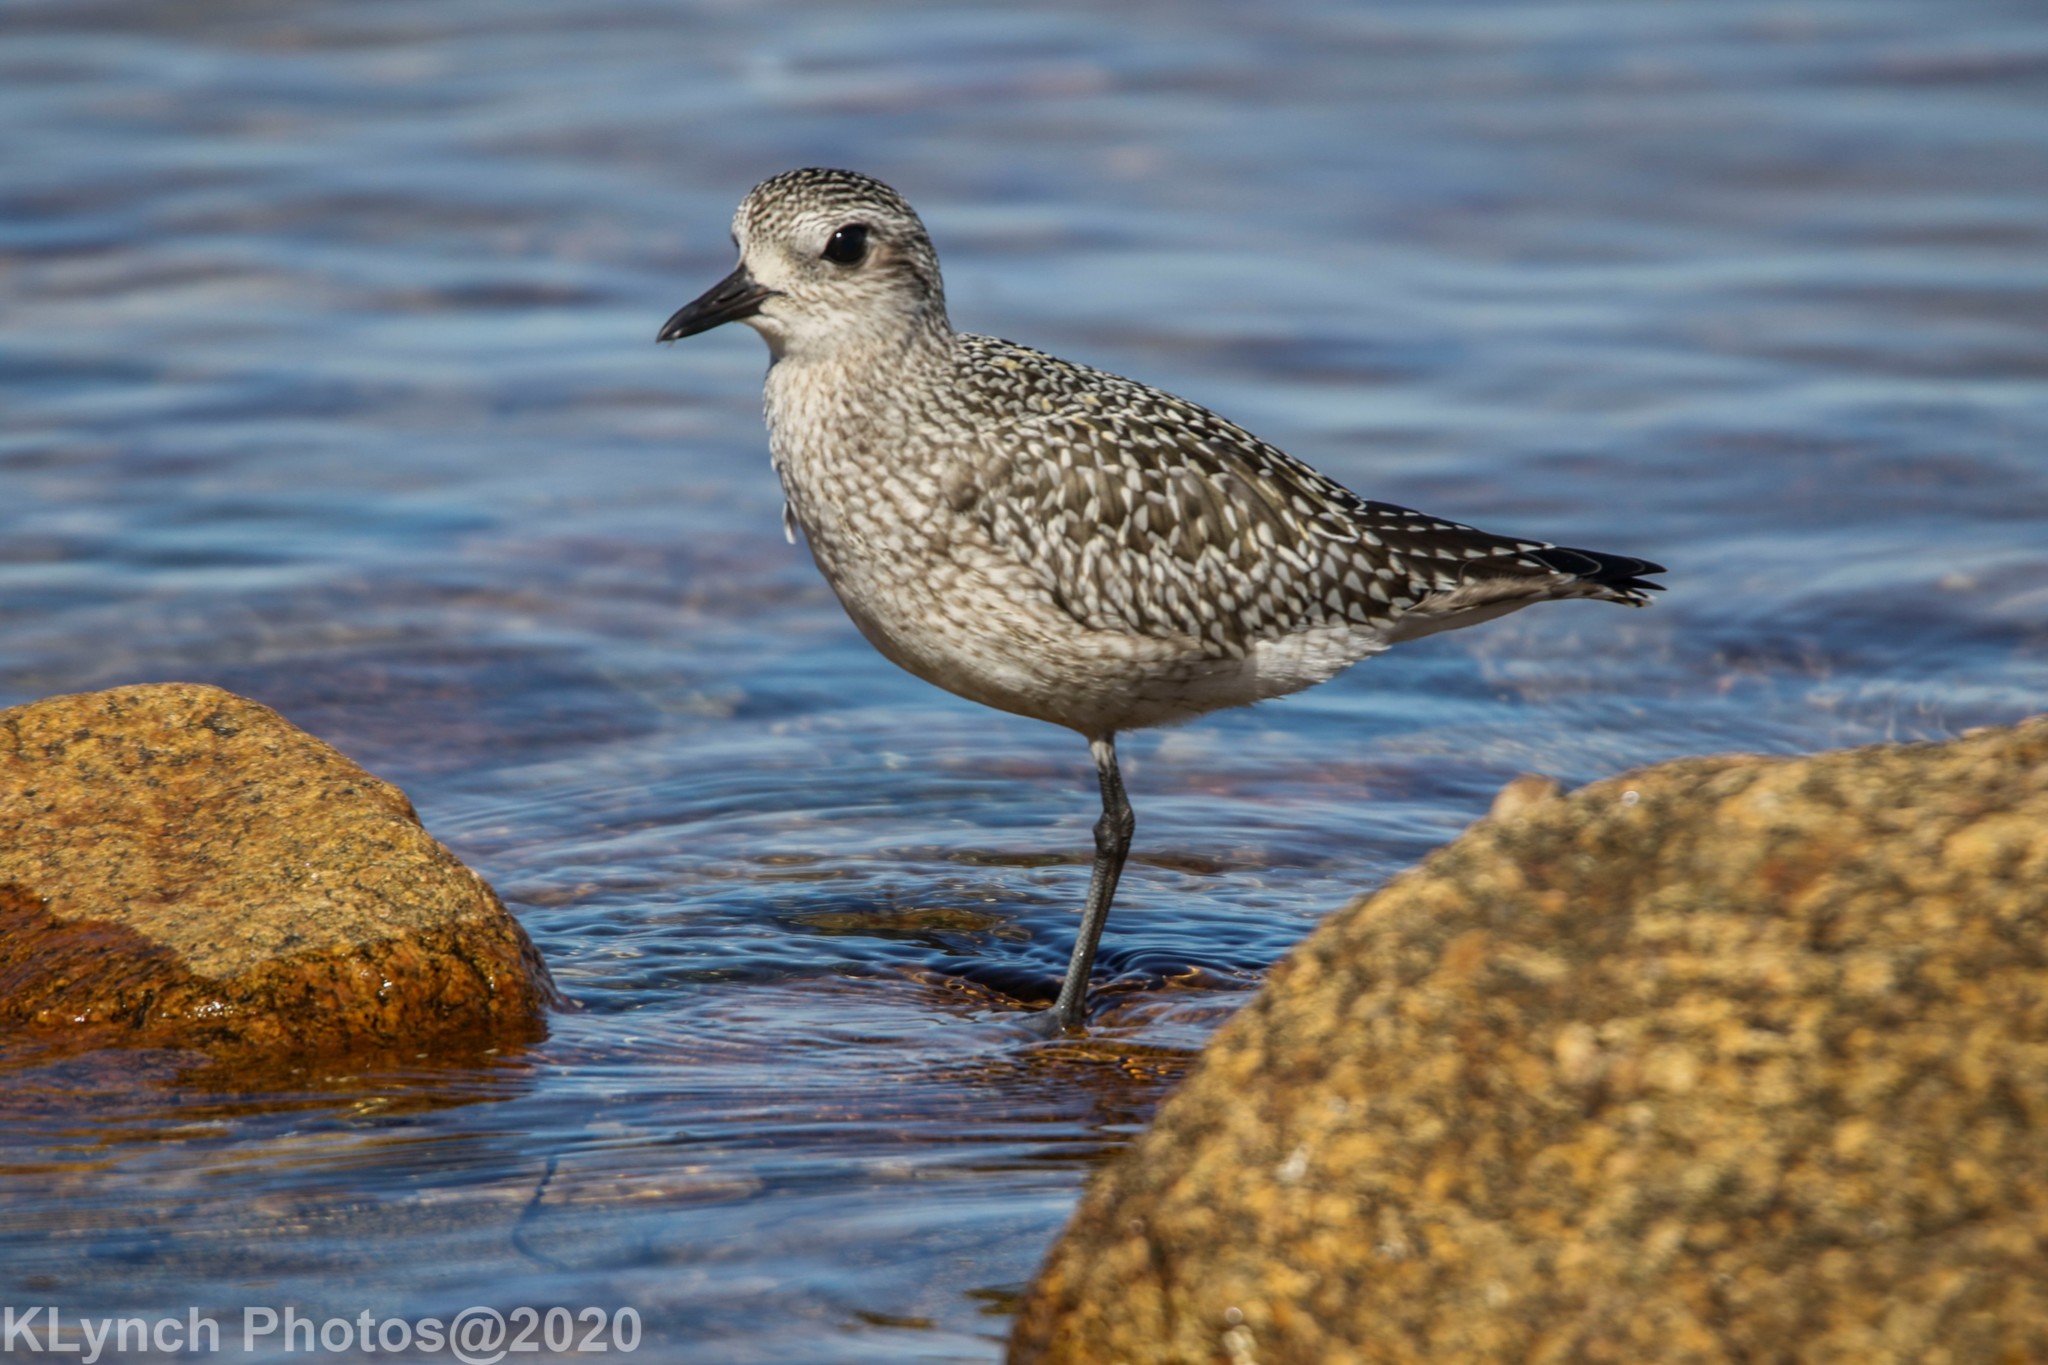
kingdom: Animalia
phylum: Chordata
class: Aves
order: Charadriiformes
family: Charadriidae
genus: Pluvialis
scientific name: Pluvialis squatarola
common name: Grey plover
